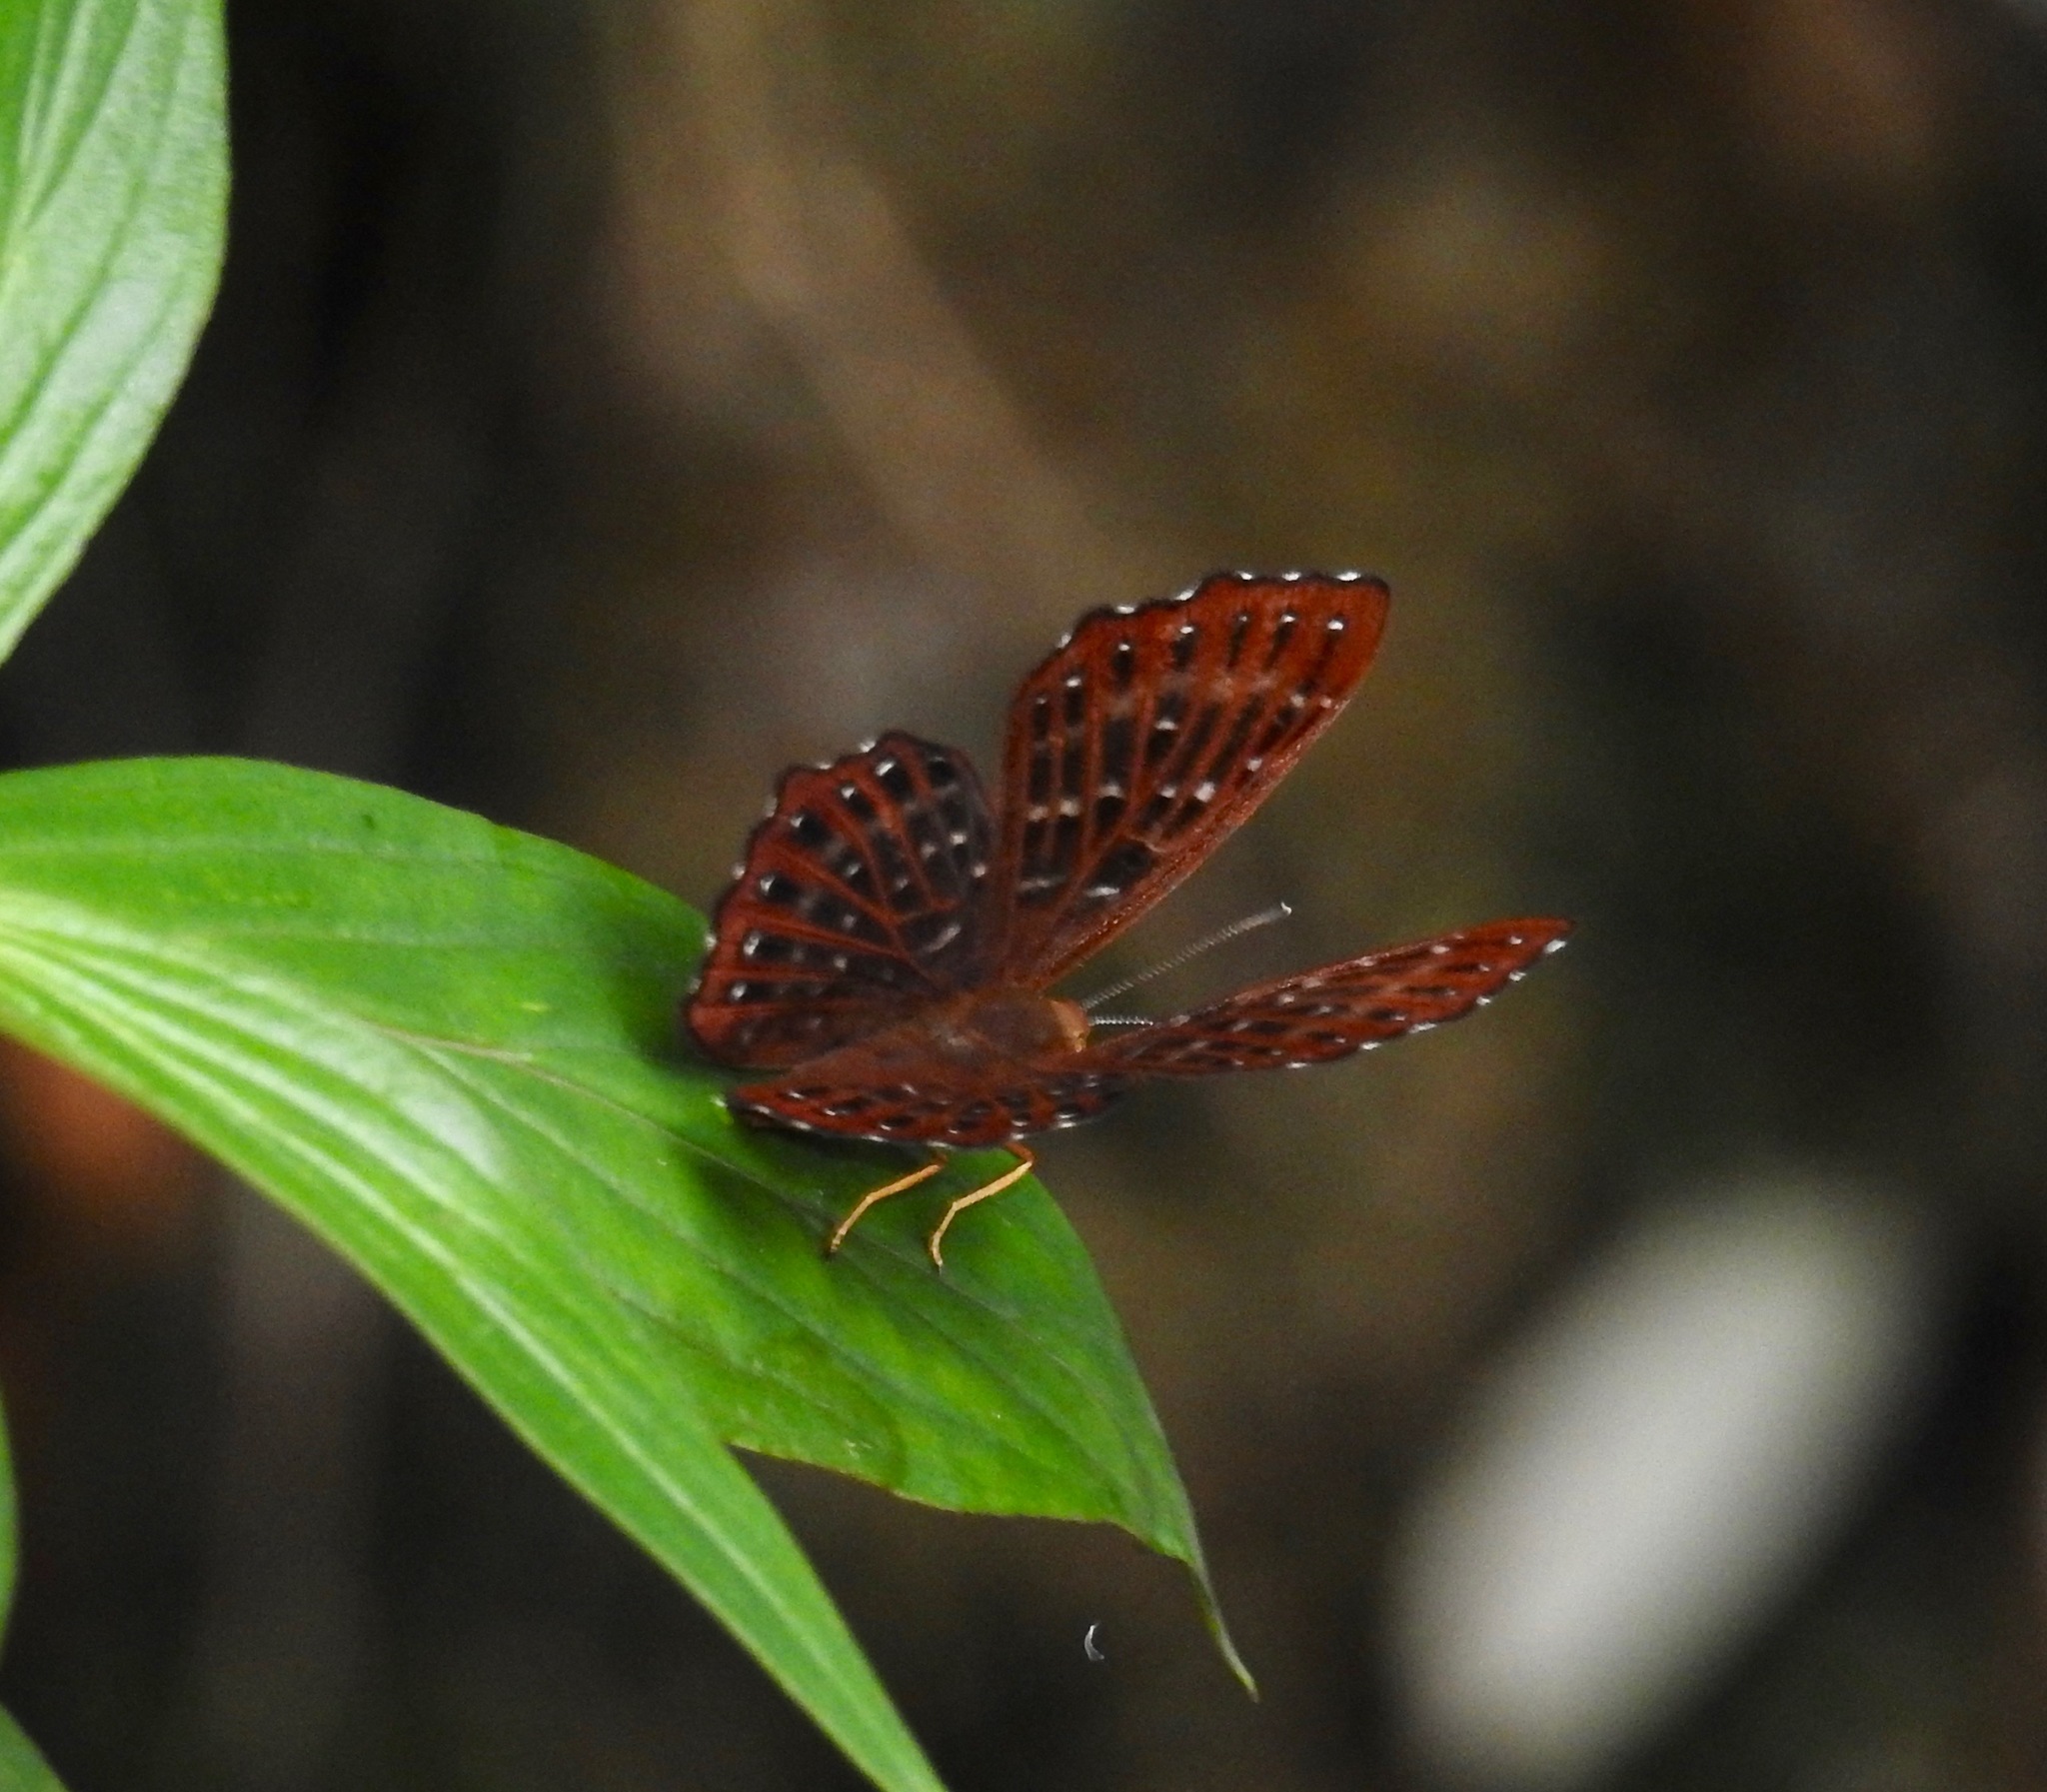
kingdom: Animalia
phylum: Arthropoda
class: Insecta
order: Lepidoptera
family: Riodinidae
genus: Zemeros
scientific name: Zemeros flegyas
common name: Punchinello
